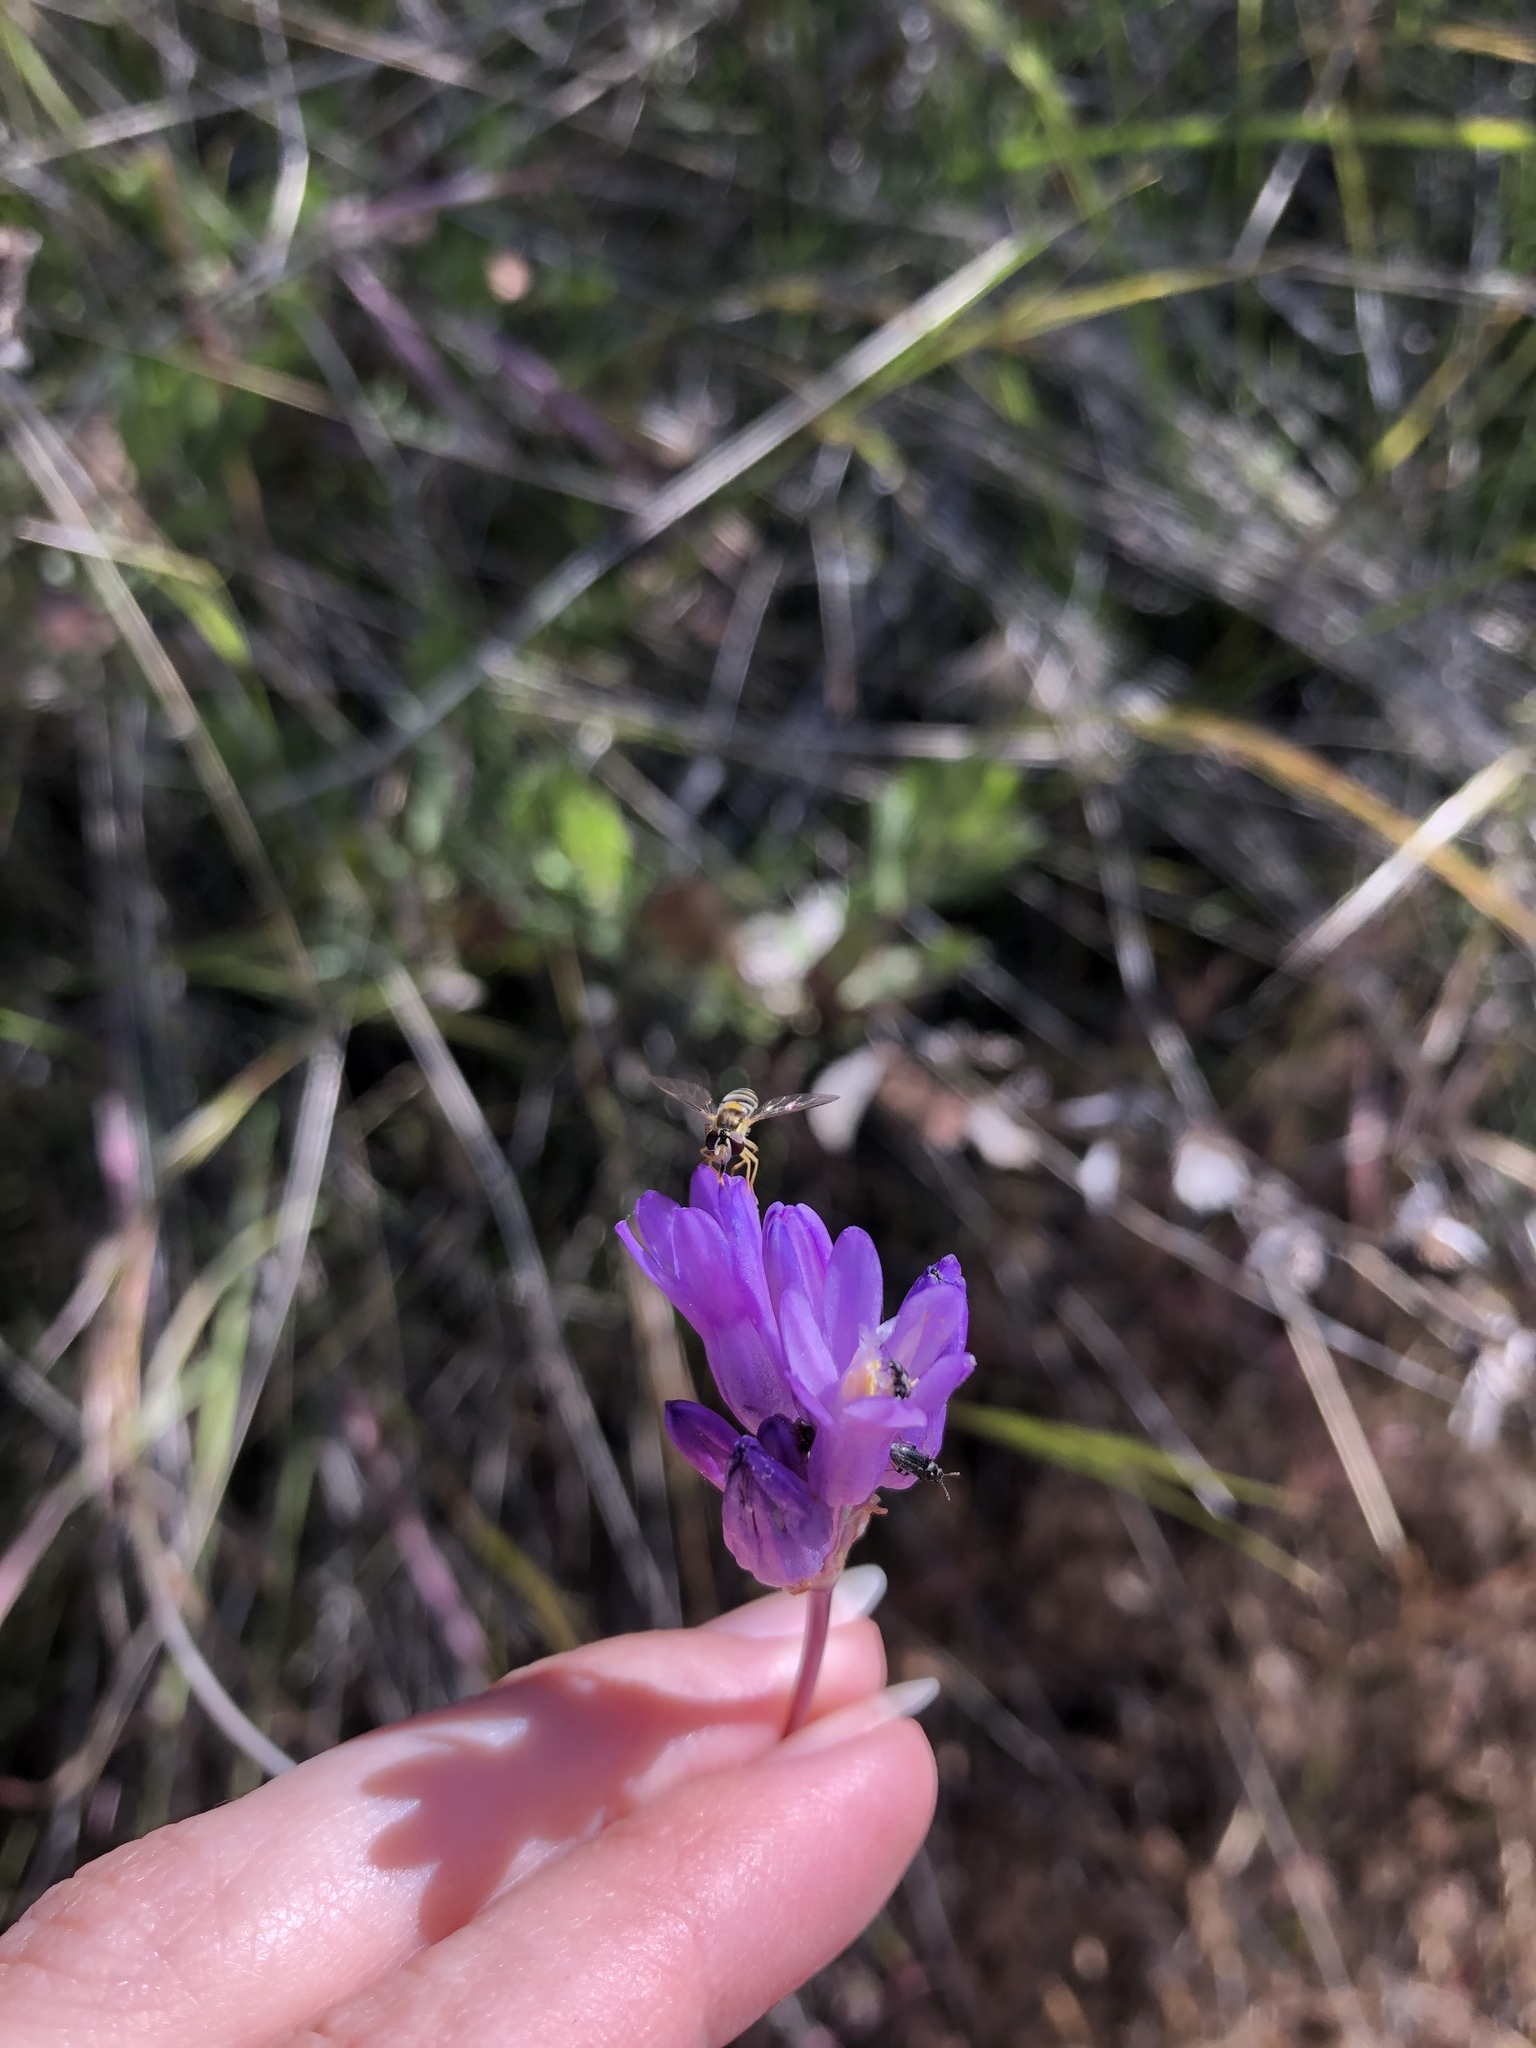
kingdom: Plantae
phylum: Tracheophyta
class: Liliopsida
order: Asparagales
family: Asparagaceae
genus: Dipterostemon
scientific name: Dipterostemon capitatus
